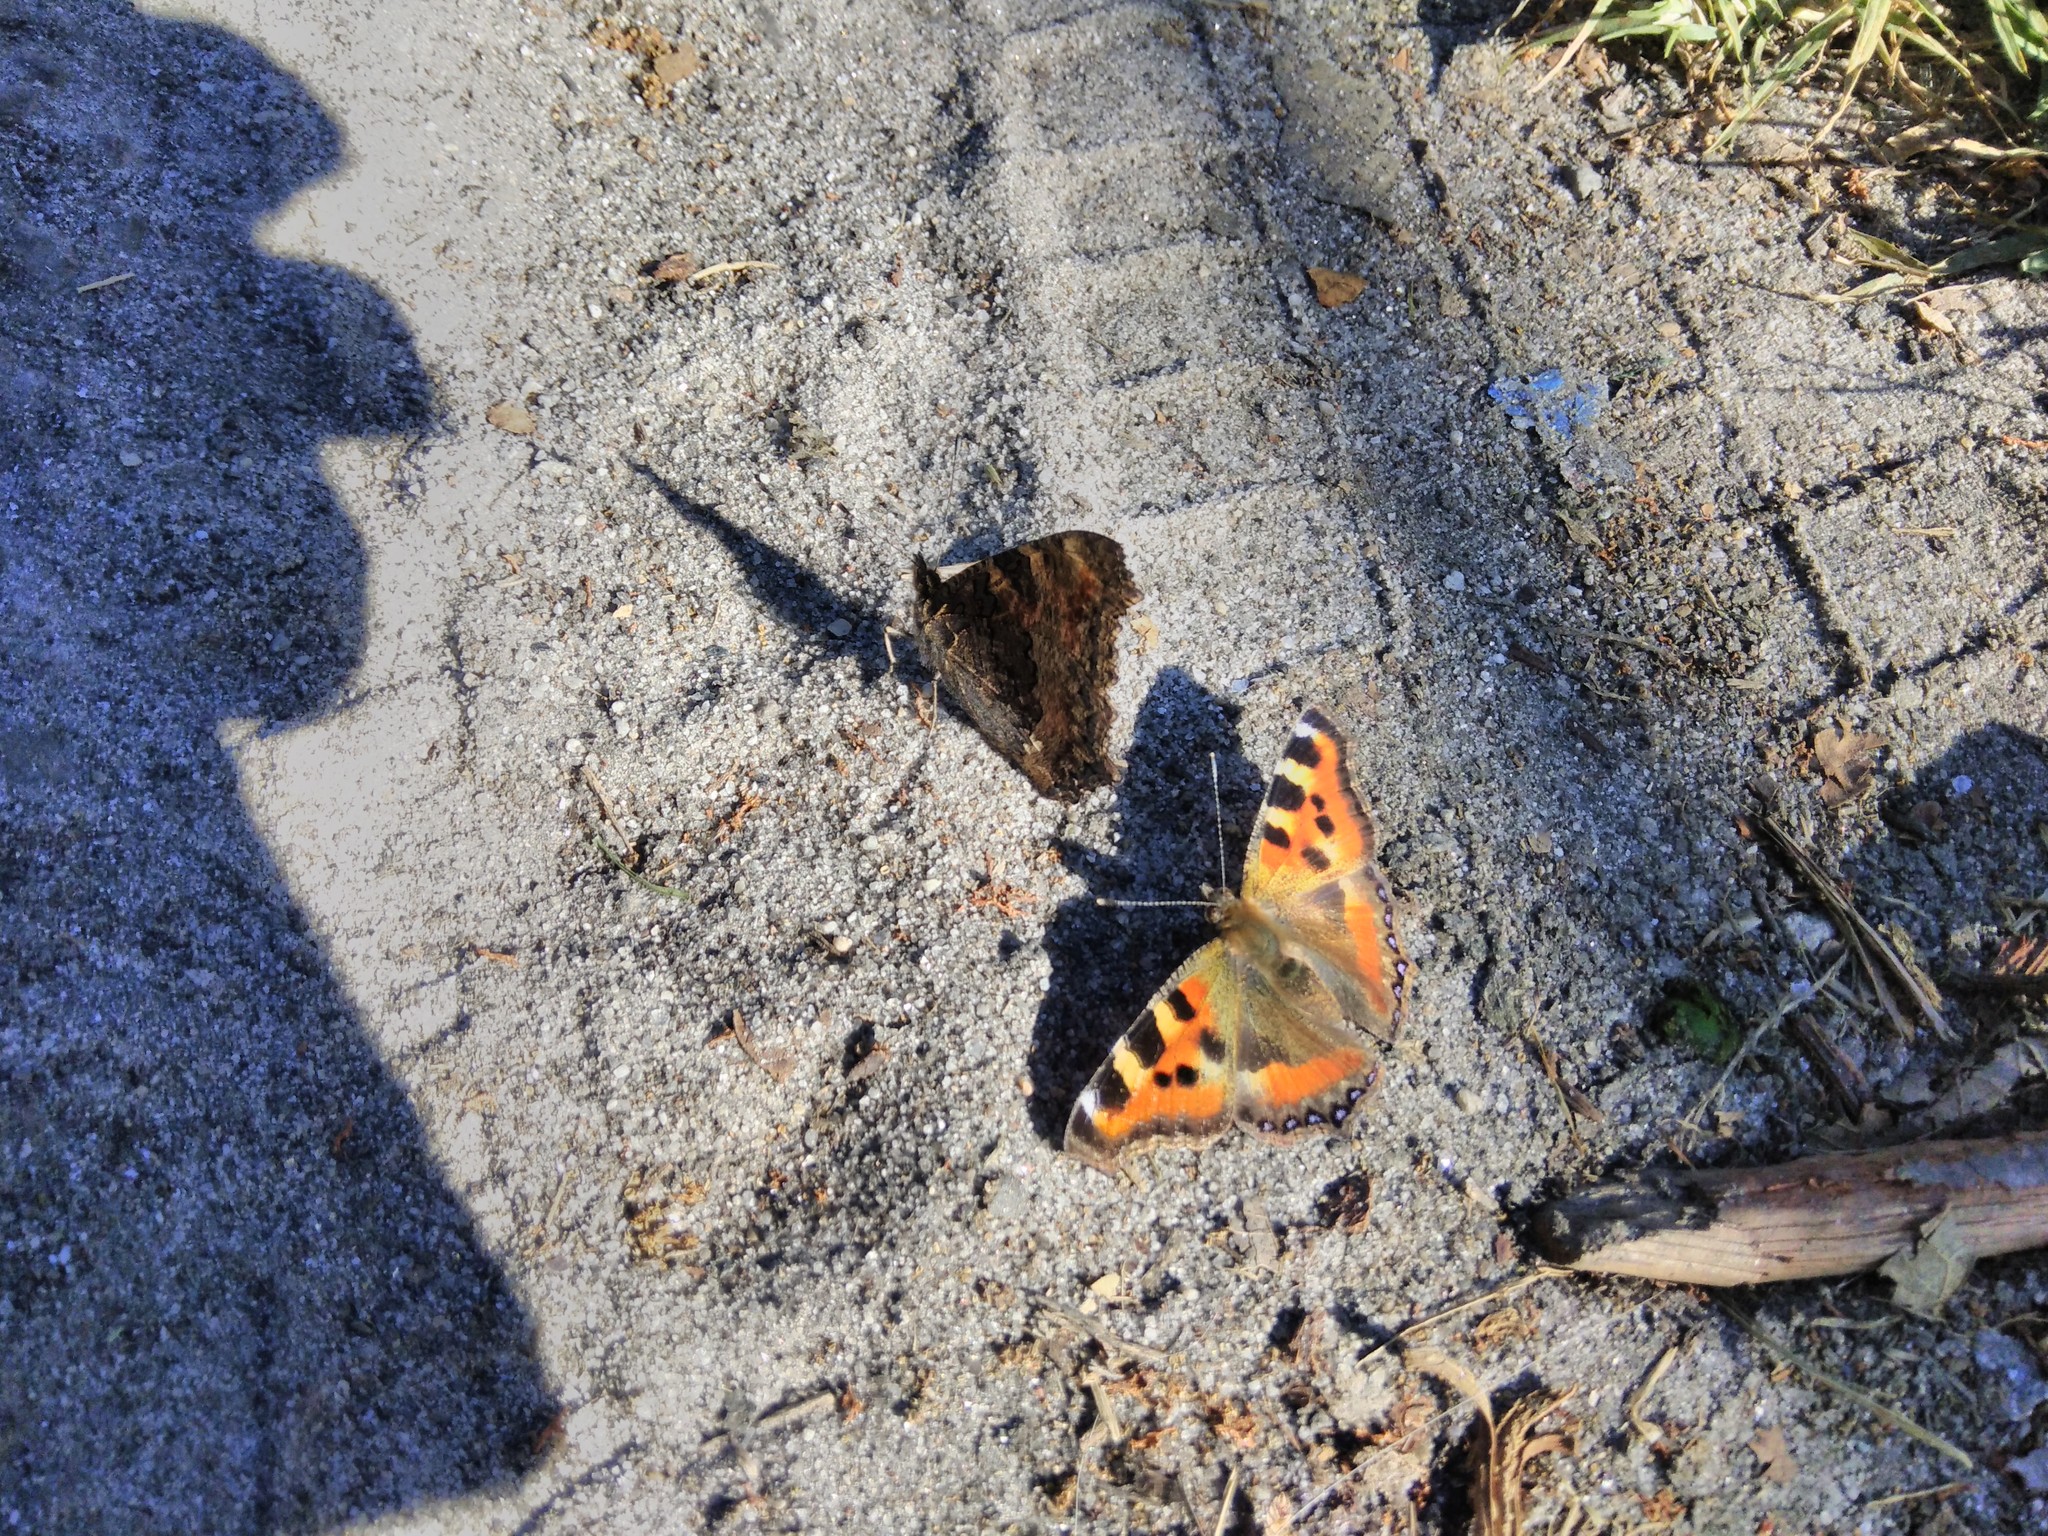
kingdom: Animalia
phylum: Arthropoda
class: Insecta
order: Lepidoptera
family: Nymphalidae
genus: Aglais
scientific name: Aglais caschmirensis
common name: Indian tortoiseshell
